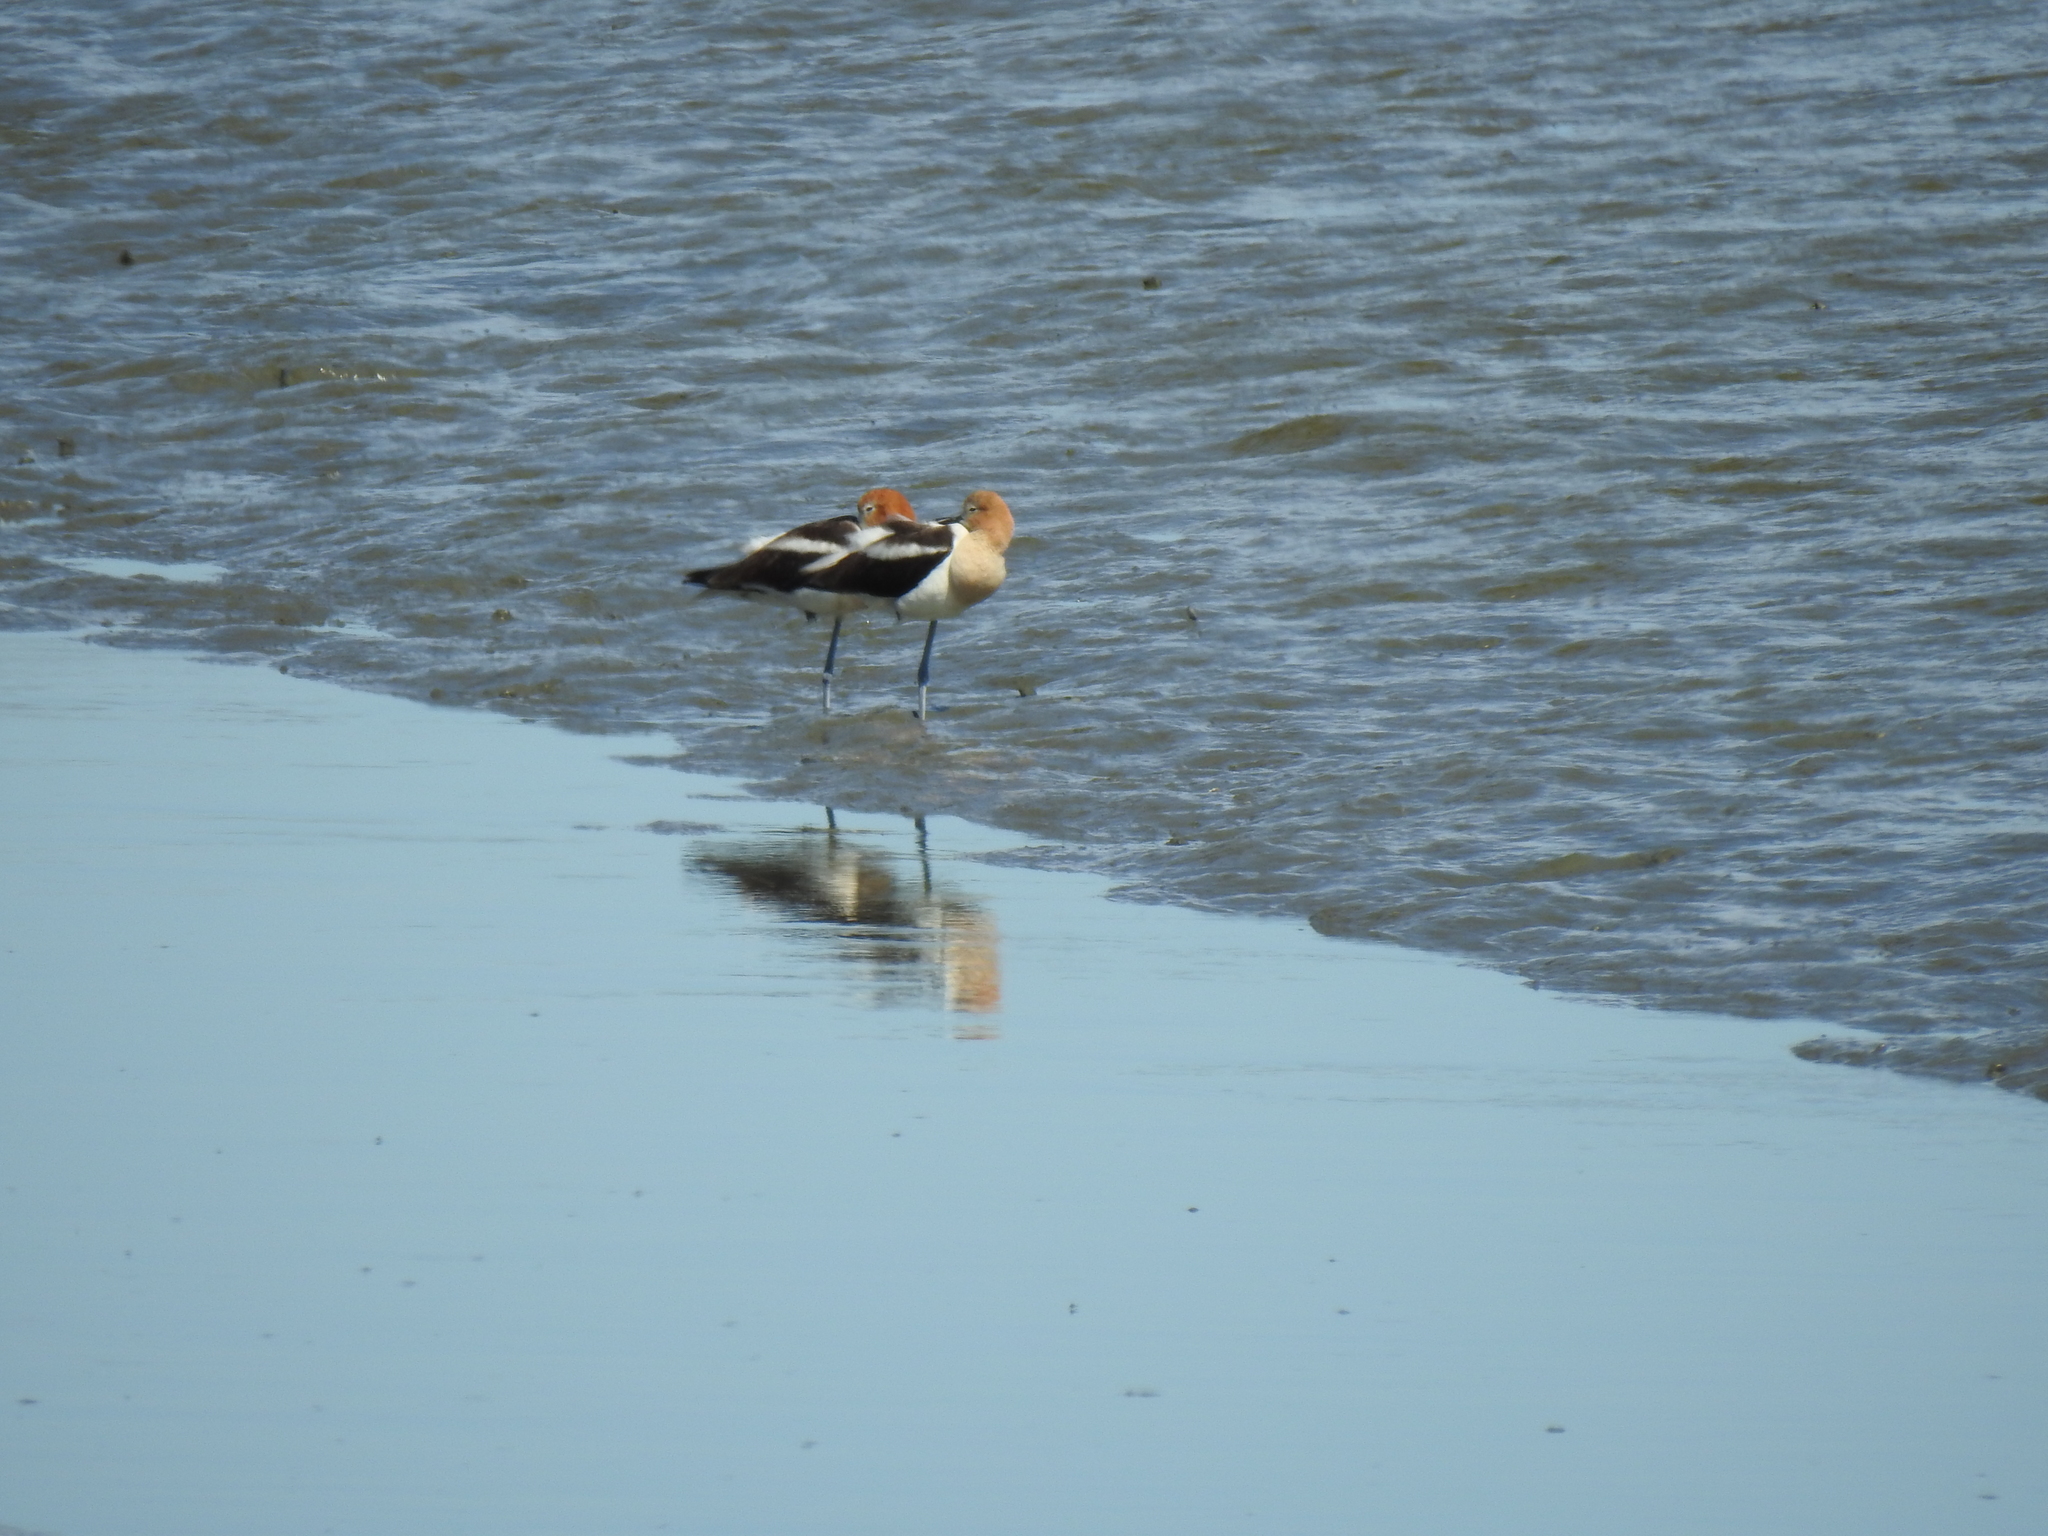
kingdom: Animalia
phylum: Chordata
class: Aves
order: Charadriiformes
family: Recurvirostridae
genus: Recurvirostra
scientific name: Recurvirostra americana
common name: American avocet
